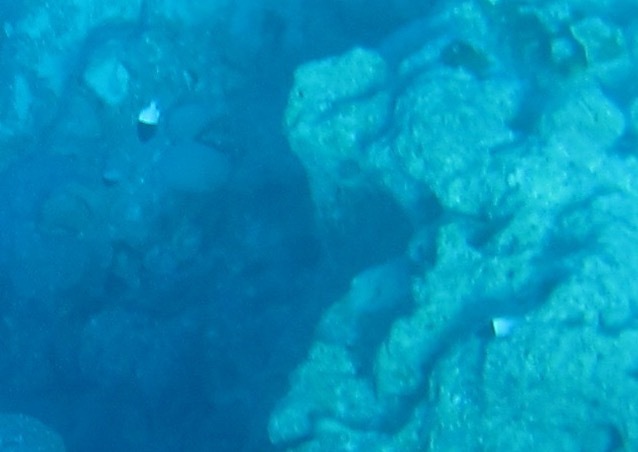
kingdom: Animalia
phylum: Chordata
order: Perciformes
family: Pomacentridae
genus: Chromis
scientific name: Chromis iomelas
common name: Half and half chromis
